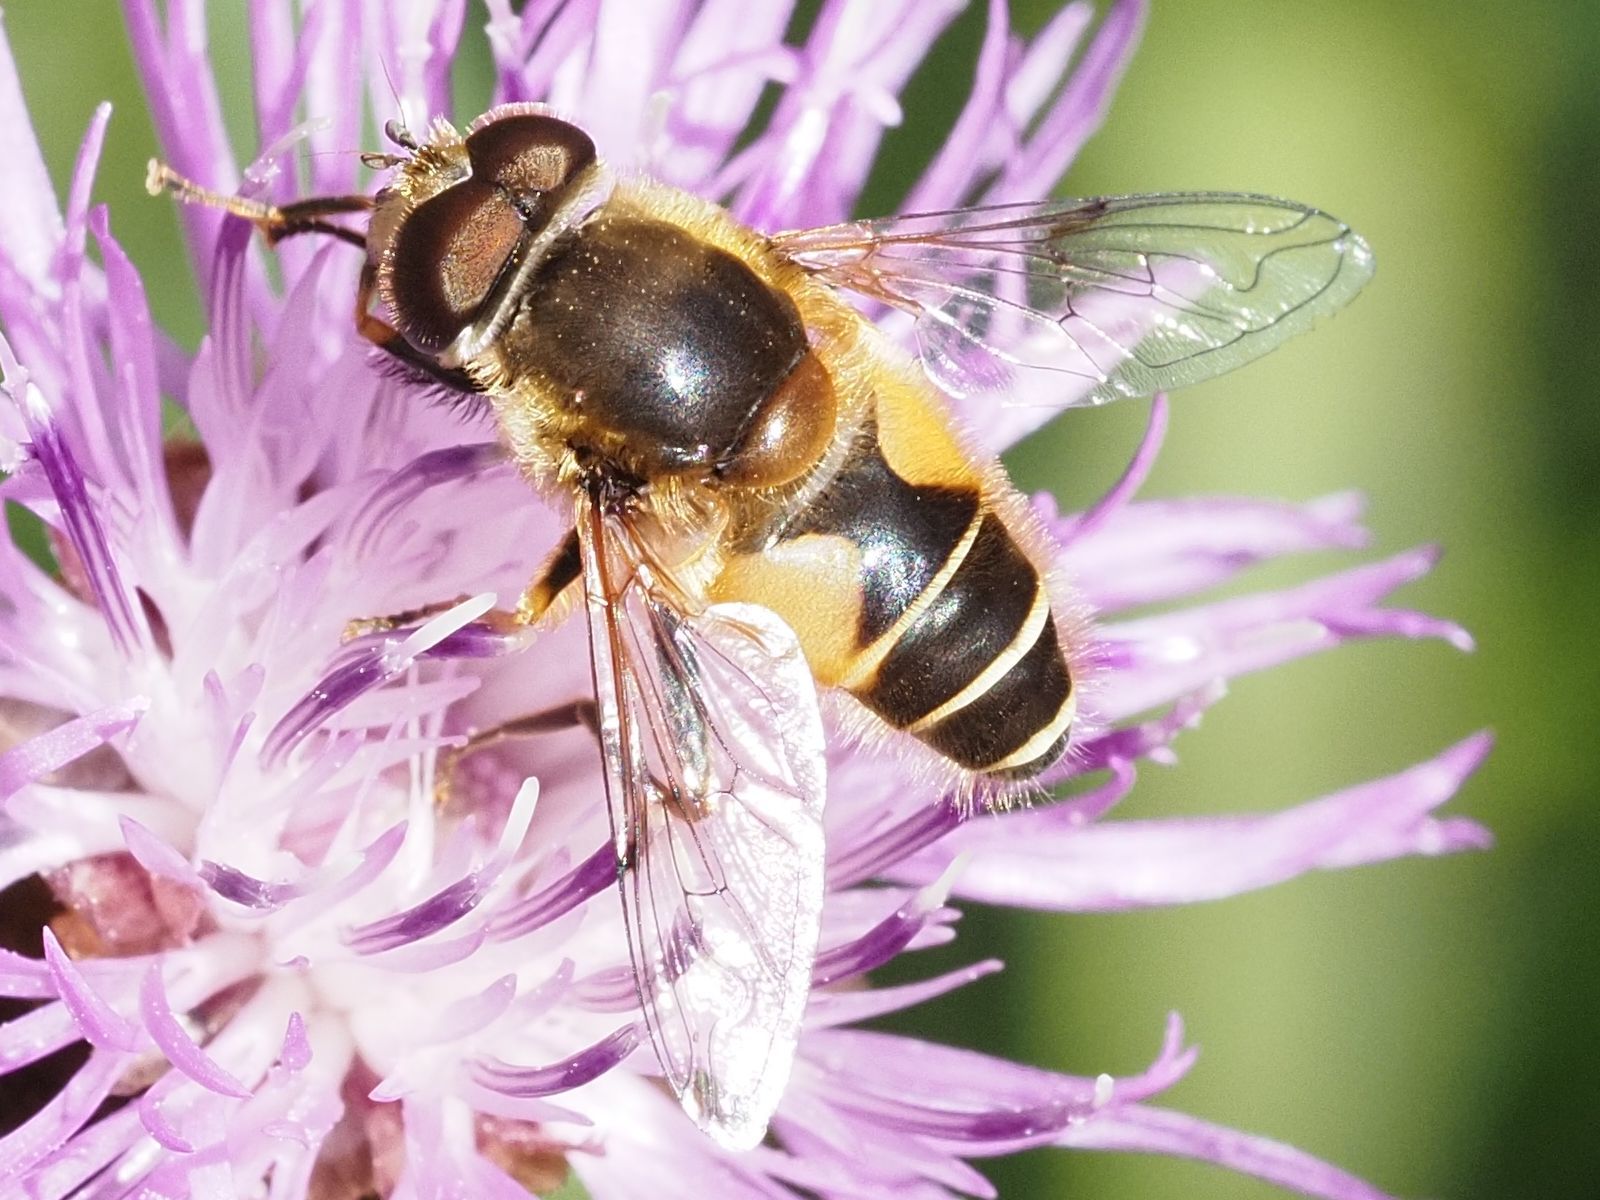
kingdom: Animalia
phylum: Arthropoda
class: Insecta
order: Diptera
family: Syrphidae
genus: Cheilosia
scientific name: Cheilosia morio
